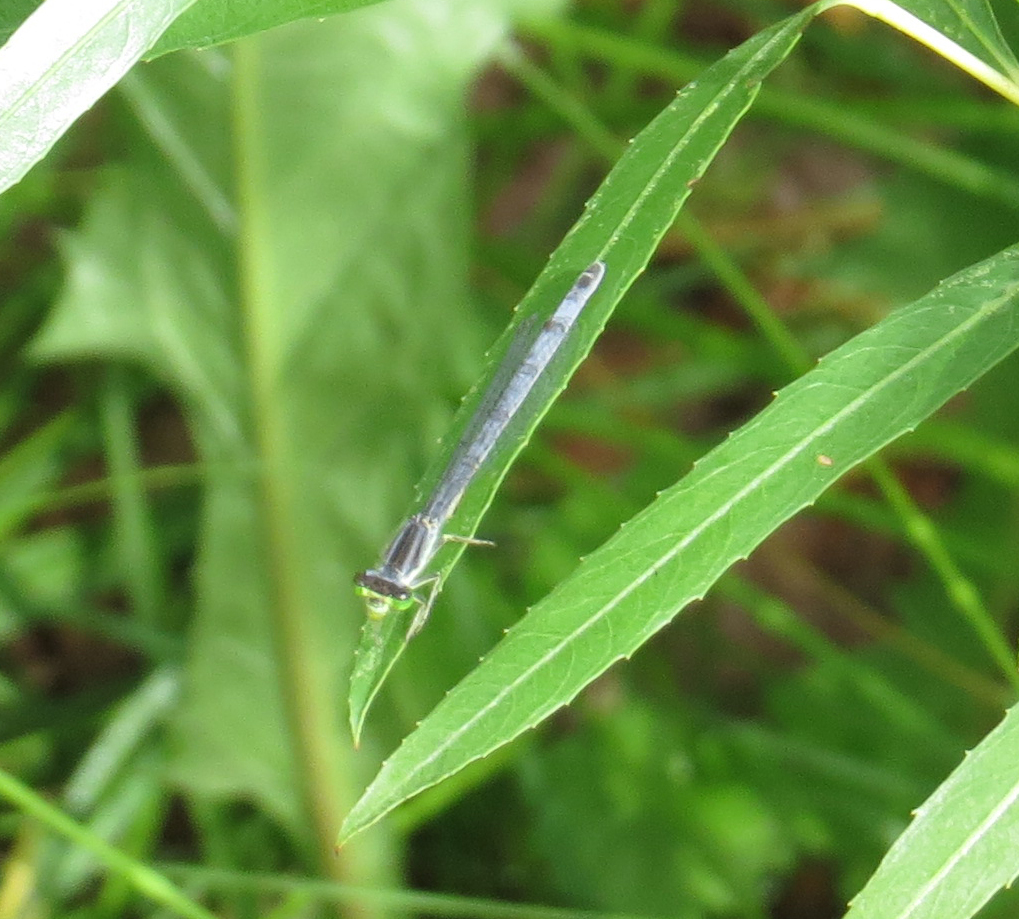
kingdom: Animalia
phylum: Arthropoda
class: Insecta
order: Odonata
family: Coenagrionidae
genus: Ischnura
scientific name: Ischnura verticalis
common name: Eastern forktail
